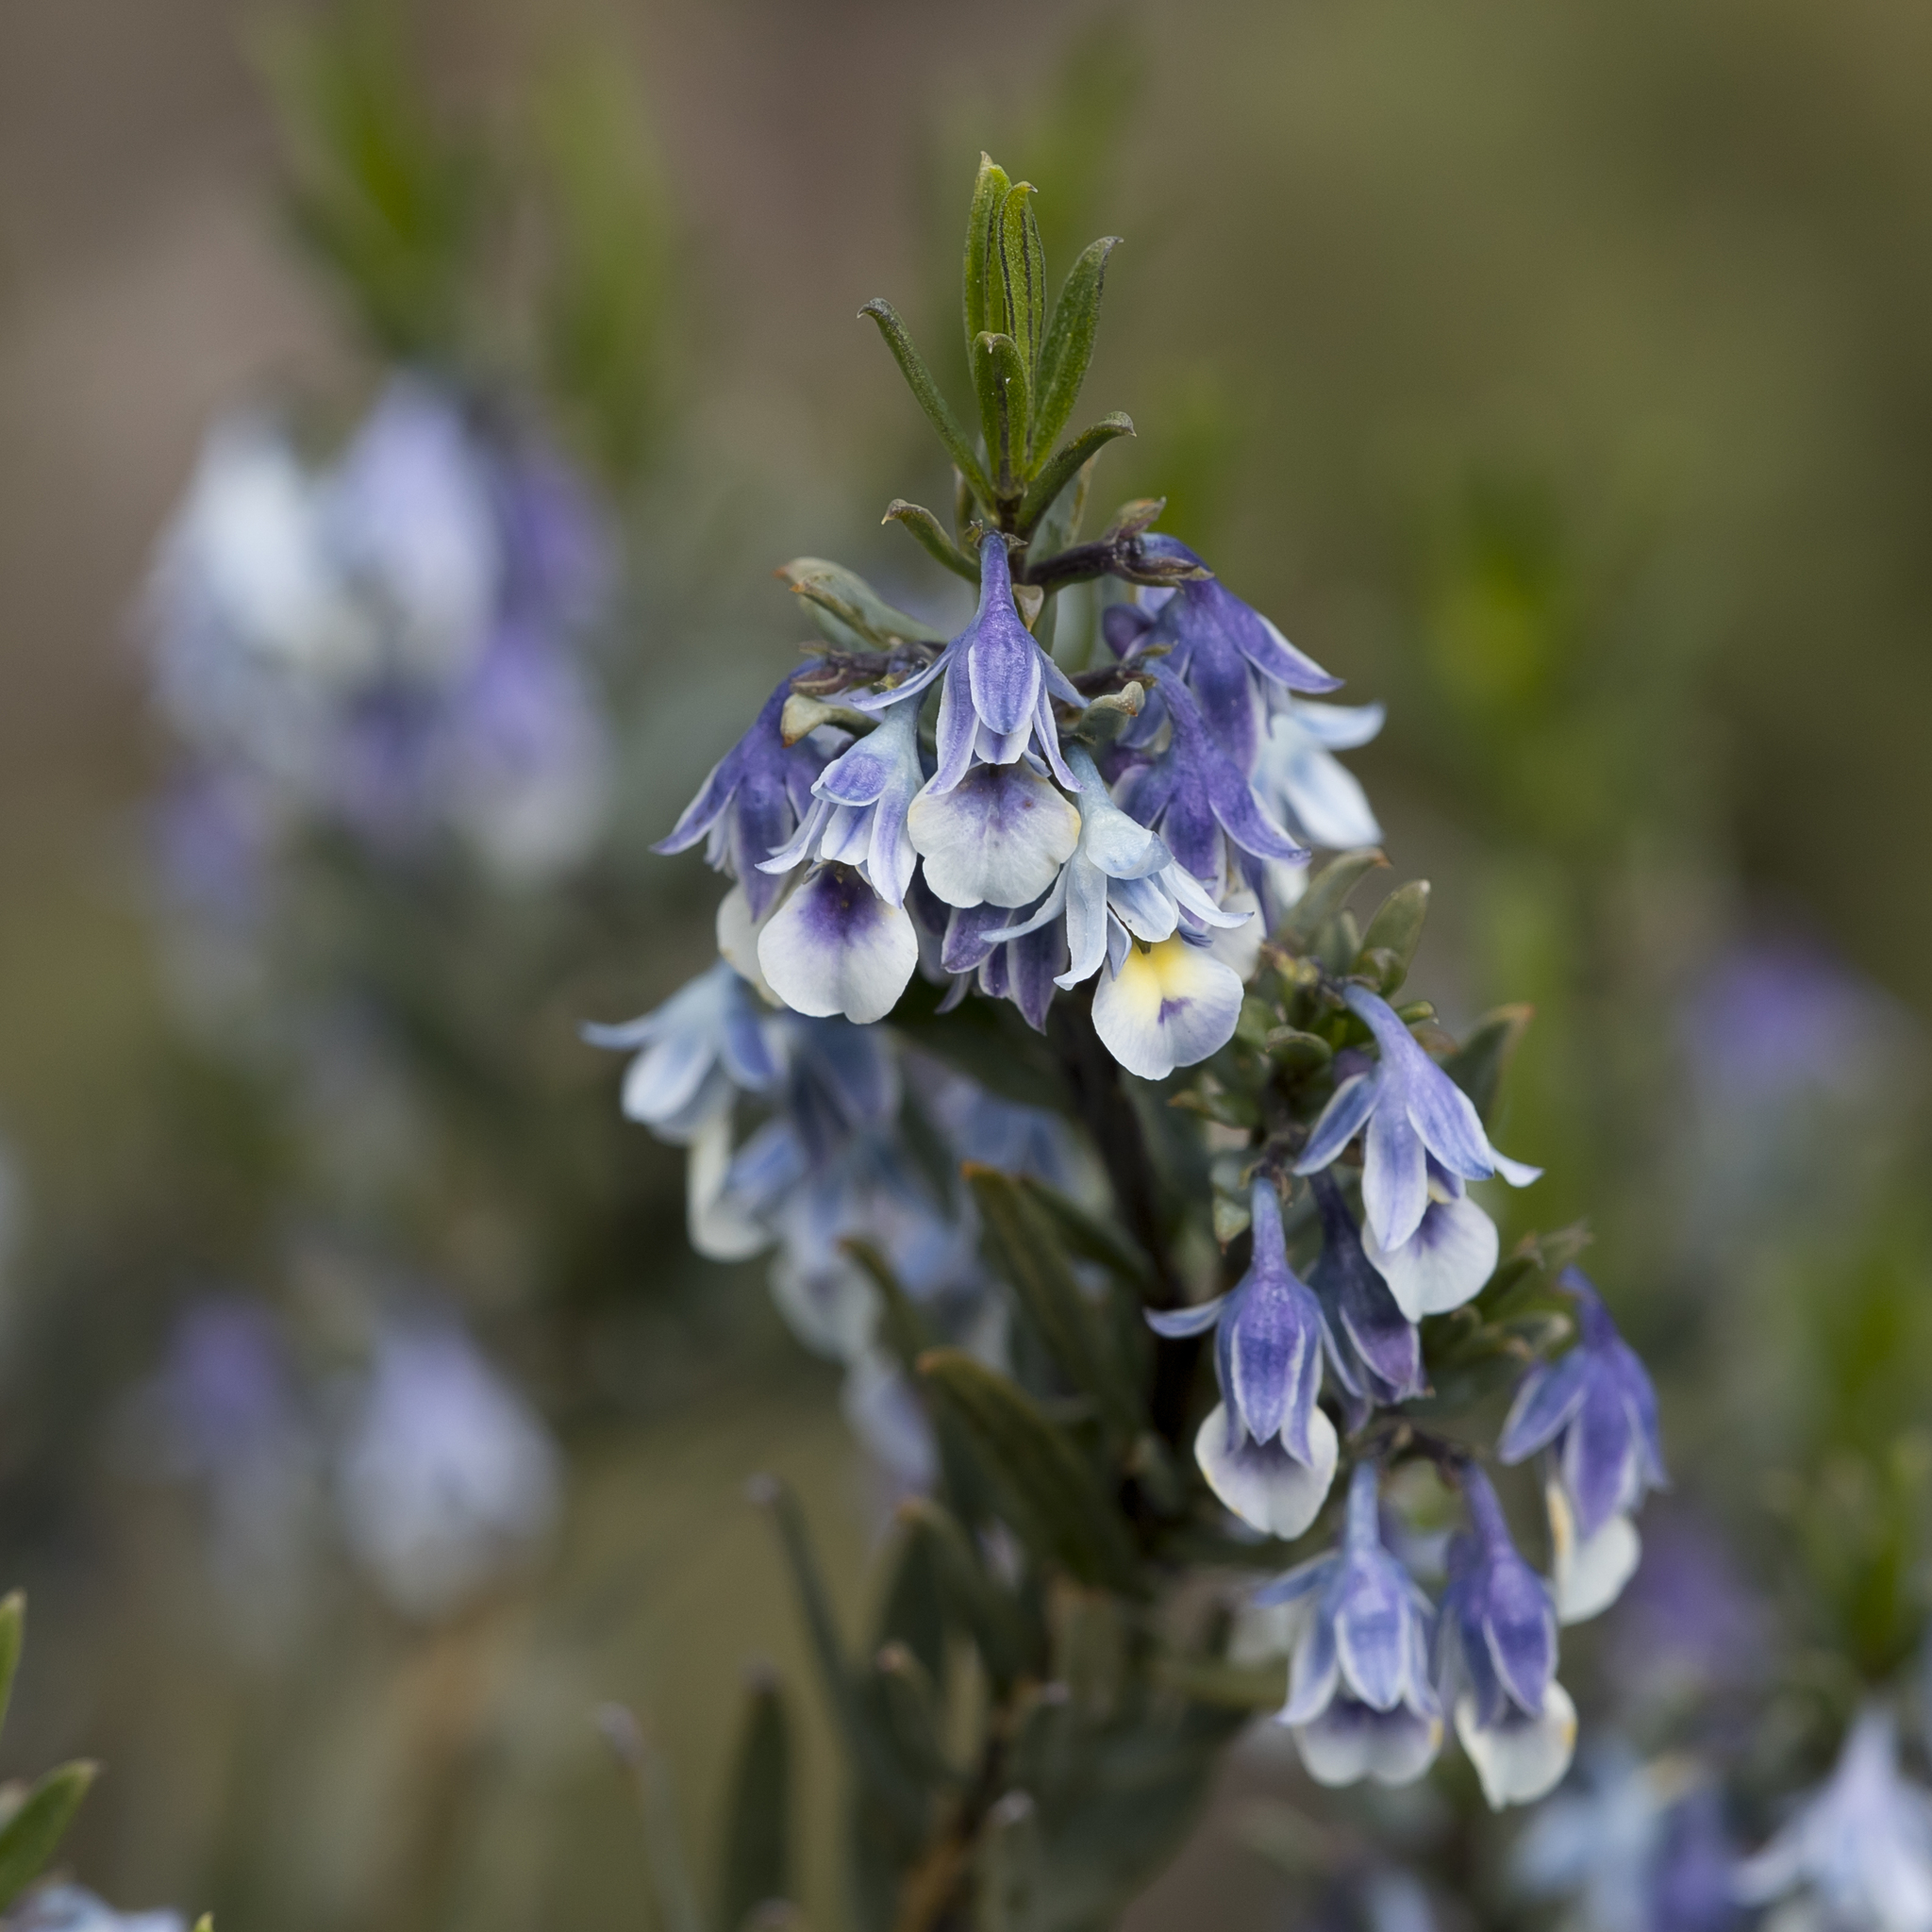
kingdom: Plantae
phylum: Tracheophyta
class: Magnoliopsida
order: Malpighiales
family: Violaceae
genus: Pigea
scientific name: Pigea floribunda
